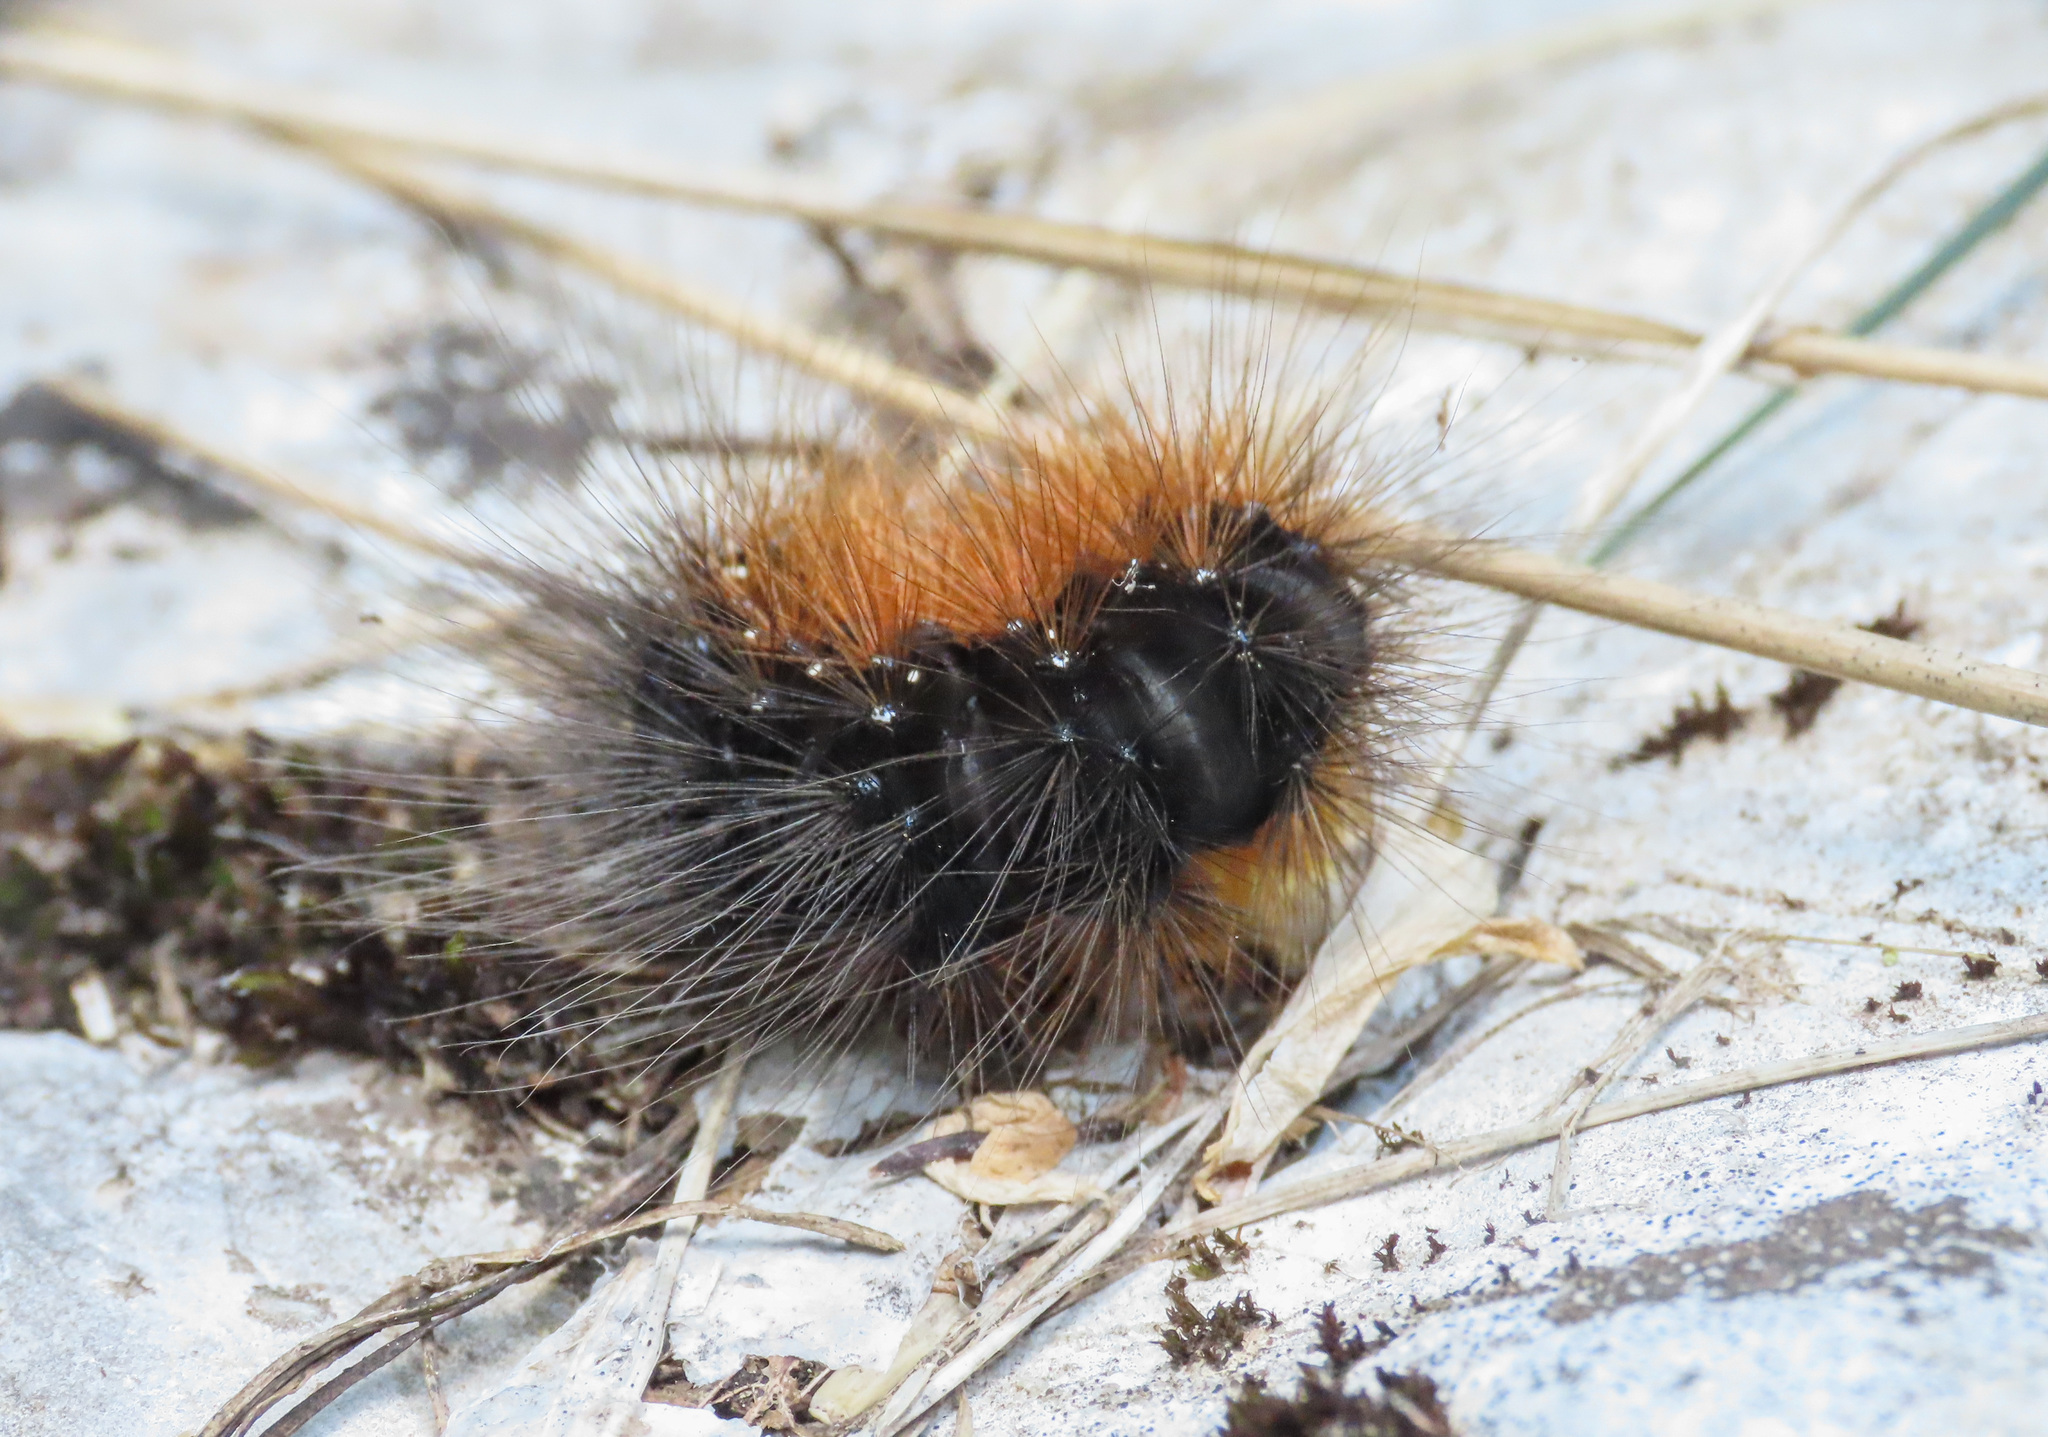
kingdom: Animalia
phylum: Arthropoda
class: Insecta
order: Lepidoptera
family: Erebidae
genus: Arctia
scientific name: Arctia caja
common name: Garden tiger
